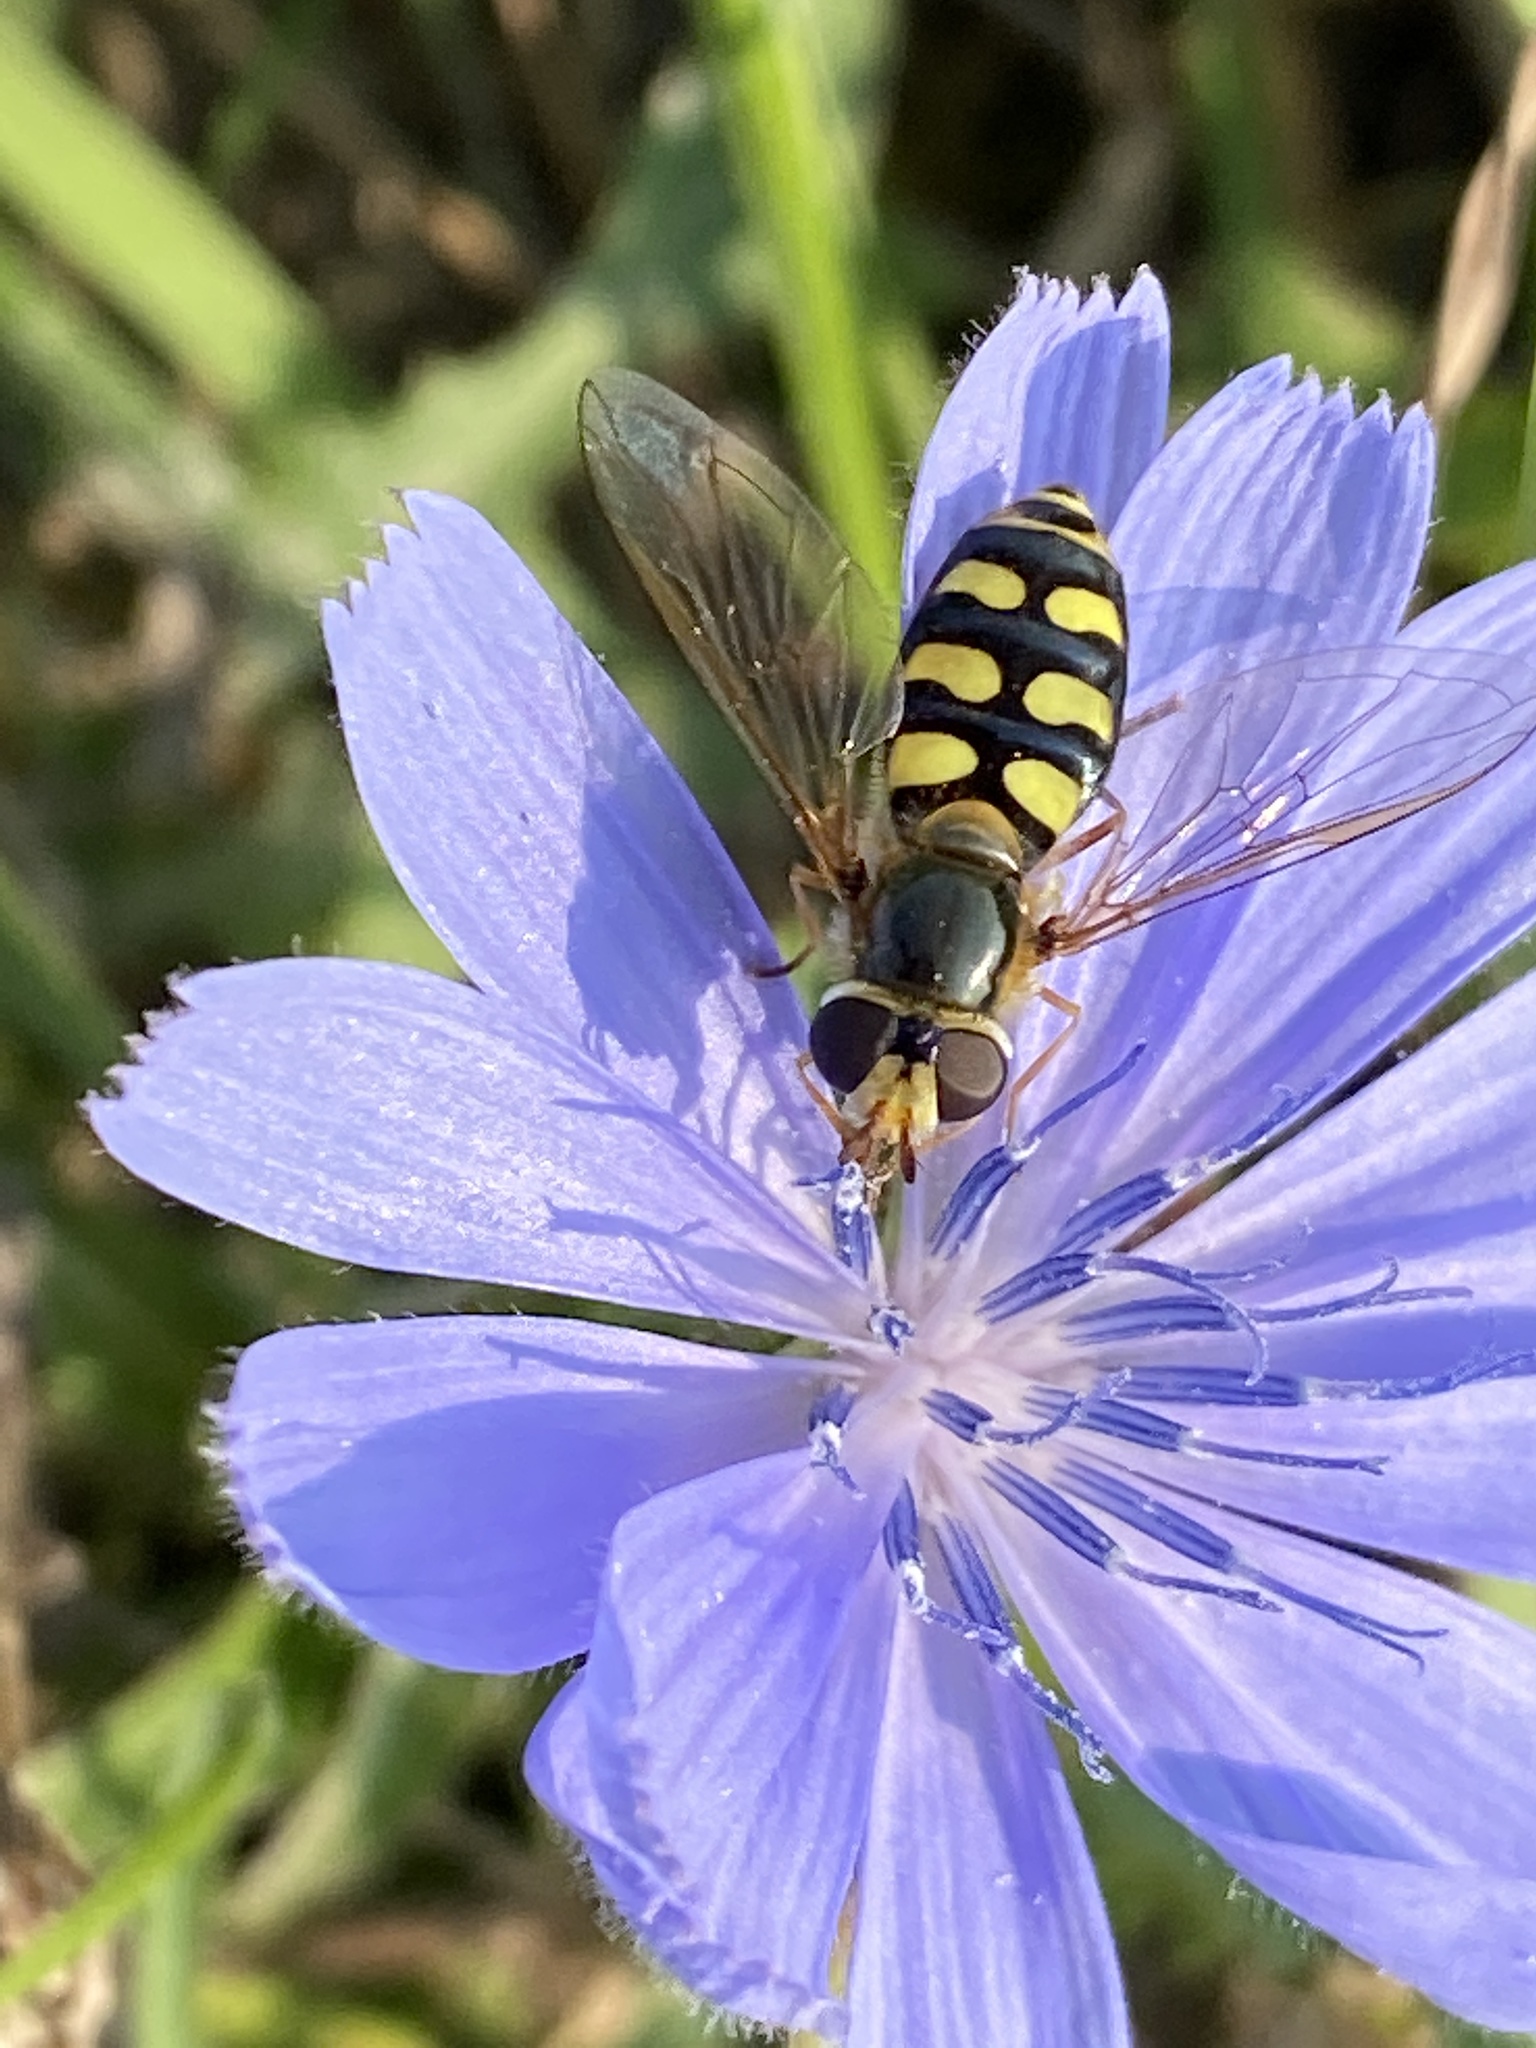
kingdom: Animalia
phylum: Arthropoda
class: Insecta
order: Diptera
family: Syrphidae
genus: Eupeodes
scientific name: Eupeodes luniger
